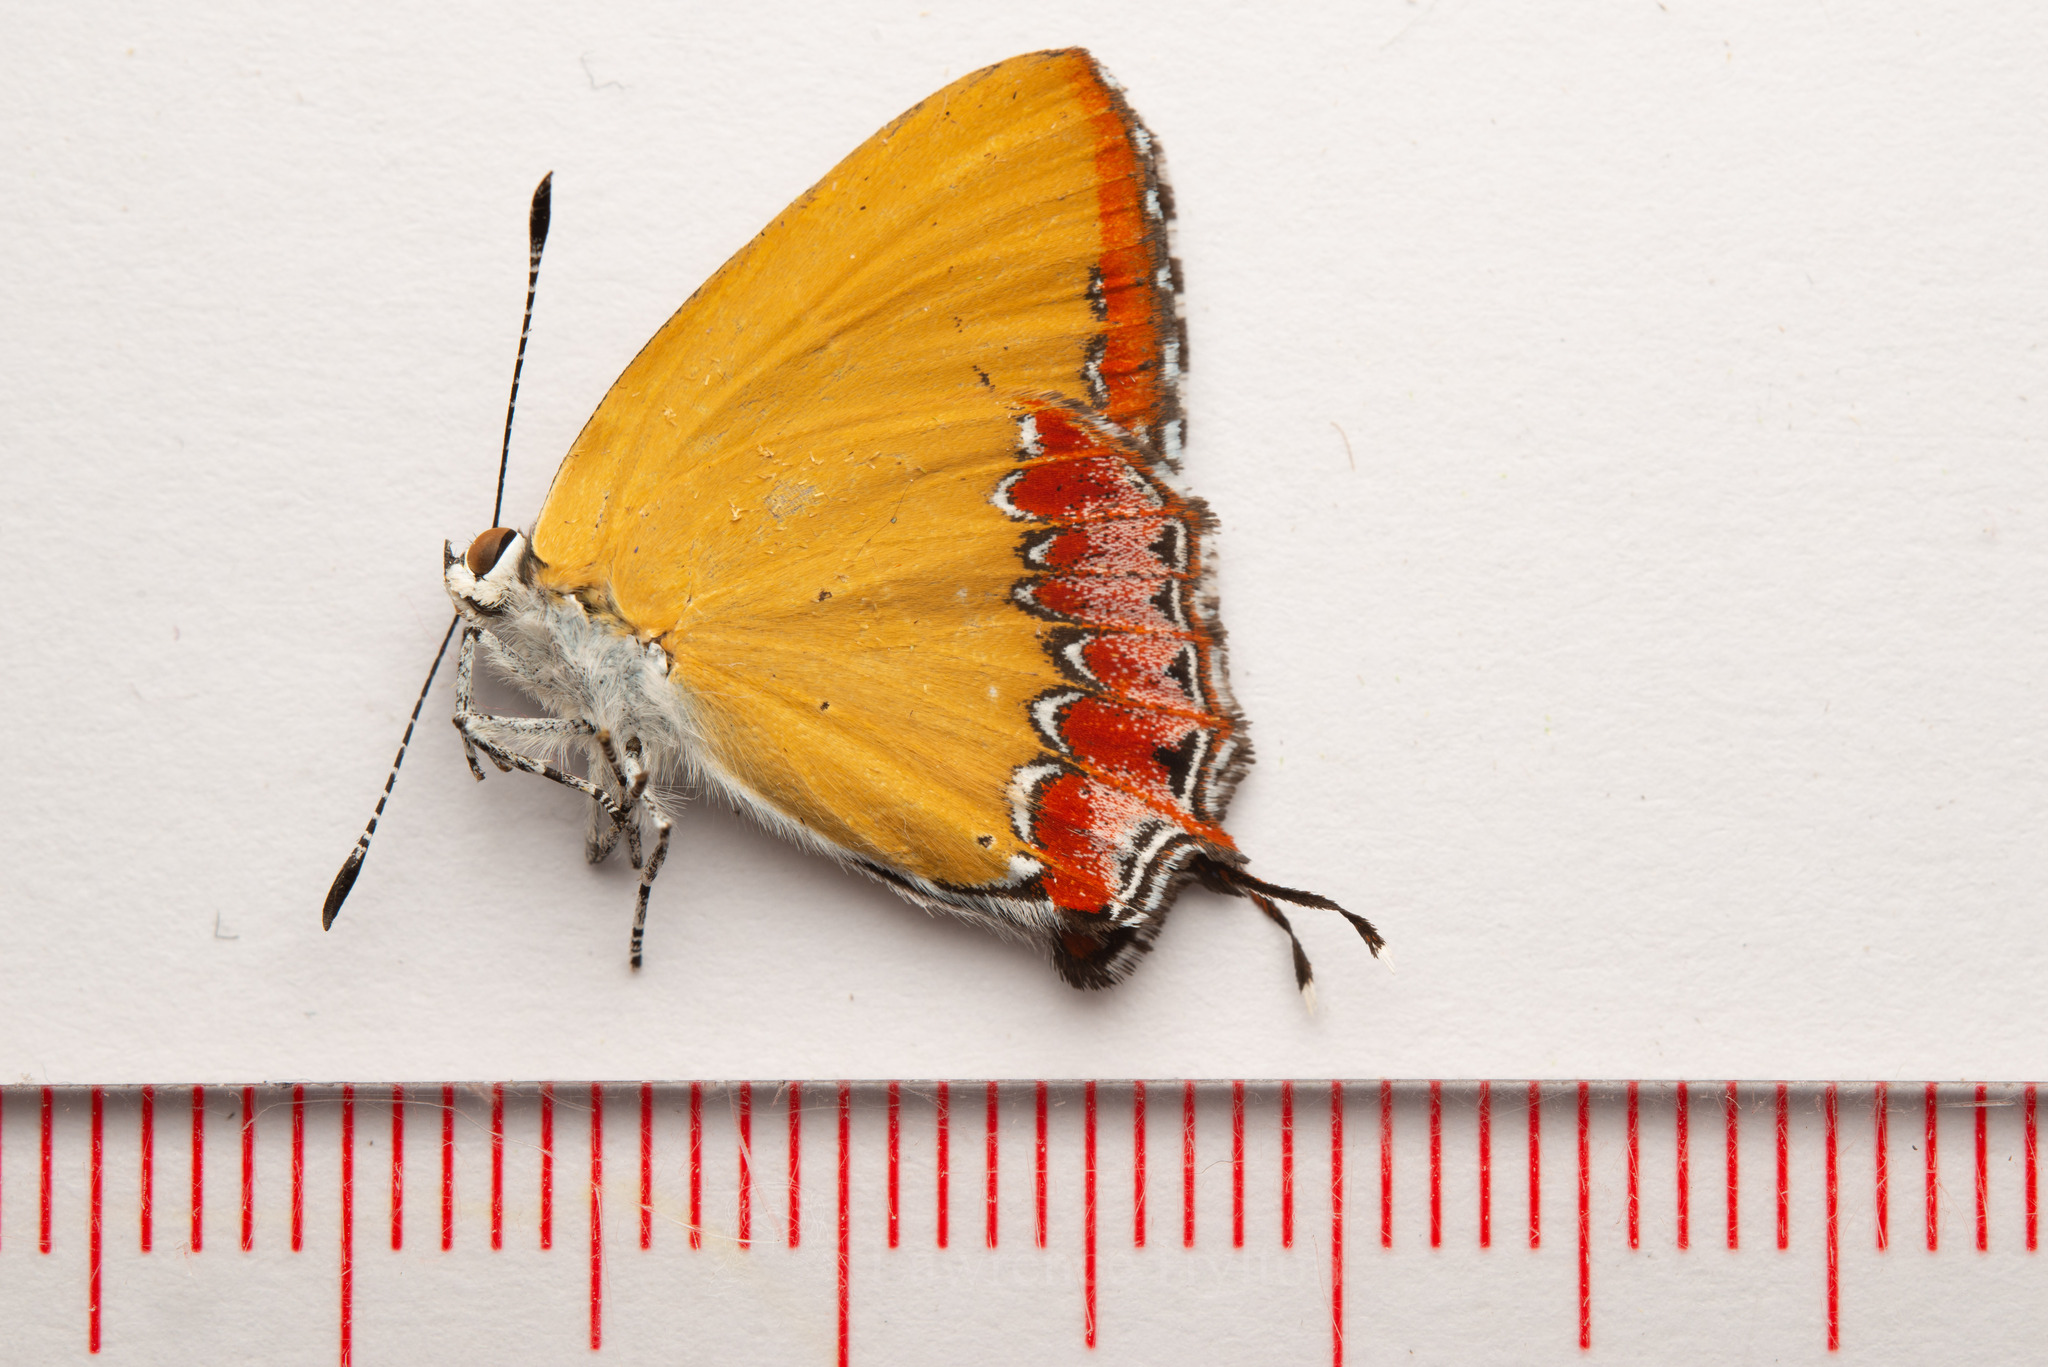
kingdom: Animalia
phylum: Arthropoda
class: Insecta
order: Lepidoptera
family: Lycaenidae
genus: Heliophorus
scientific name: Heliophorus epicles
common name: Purple sapphire
